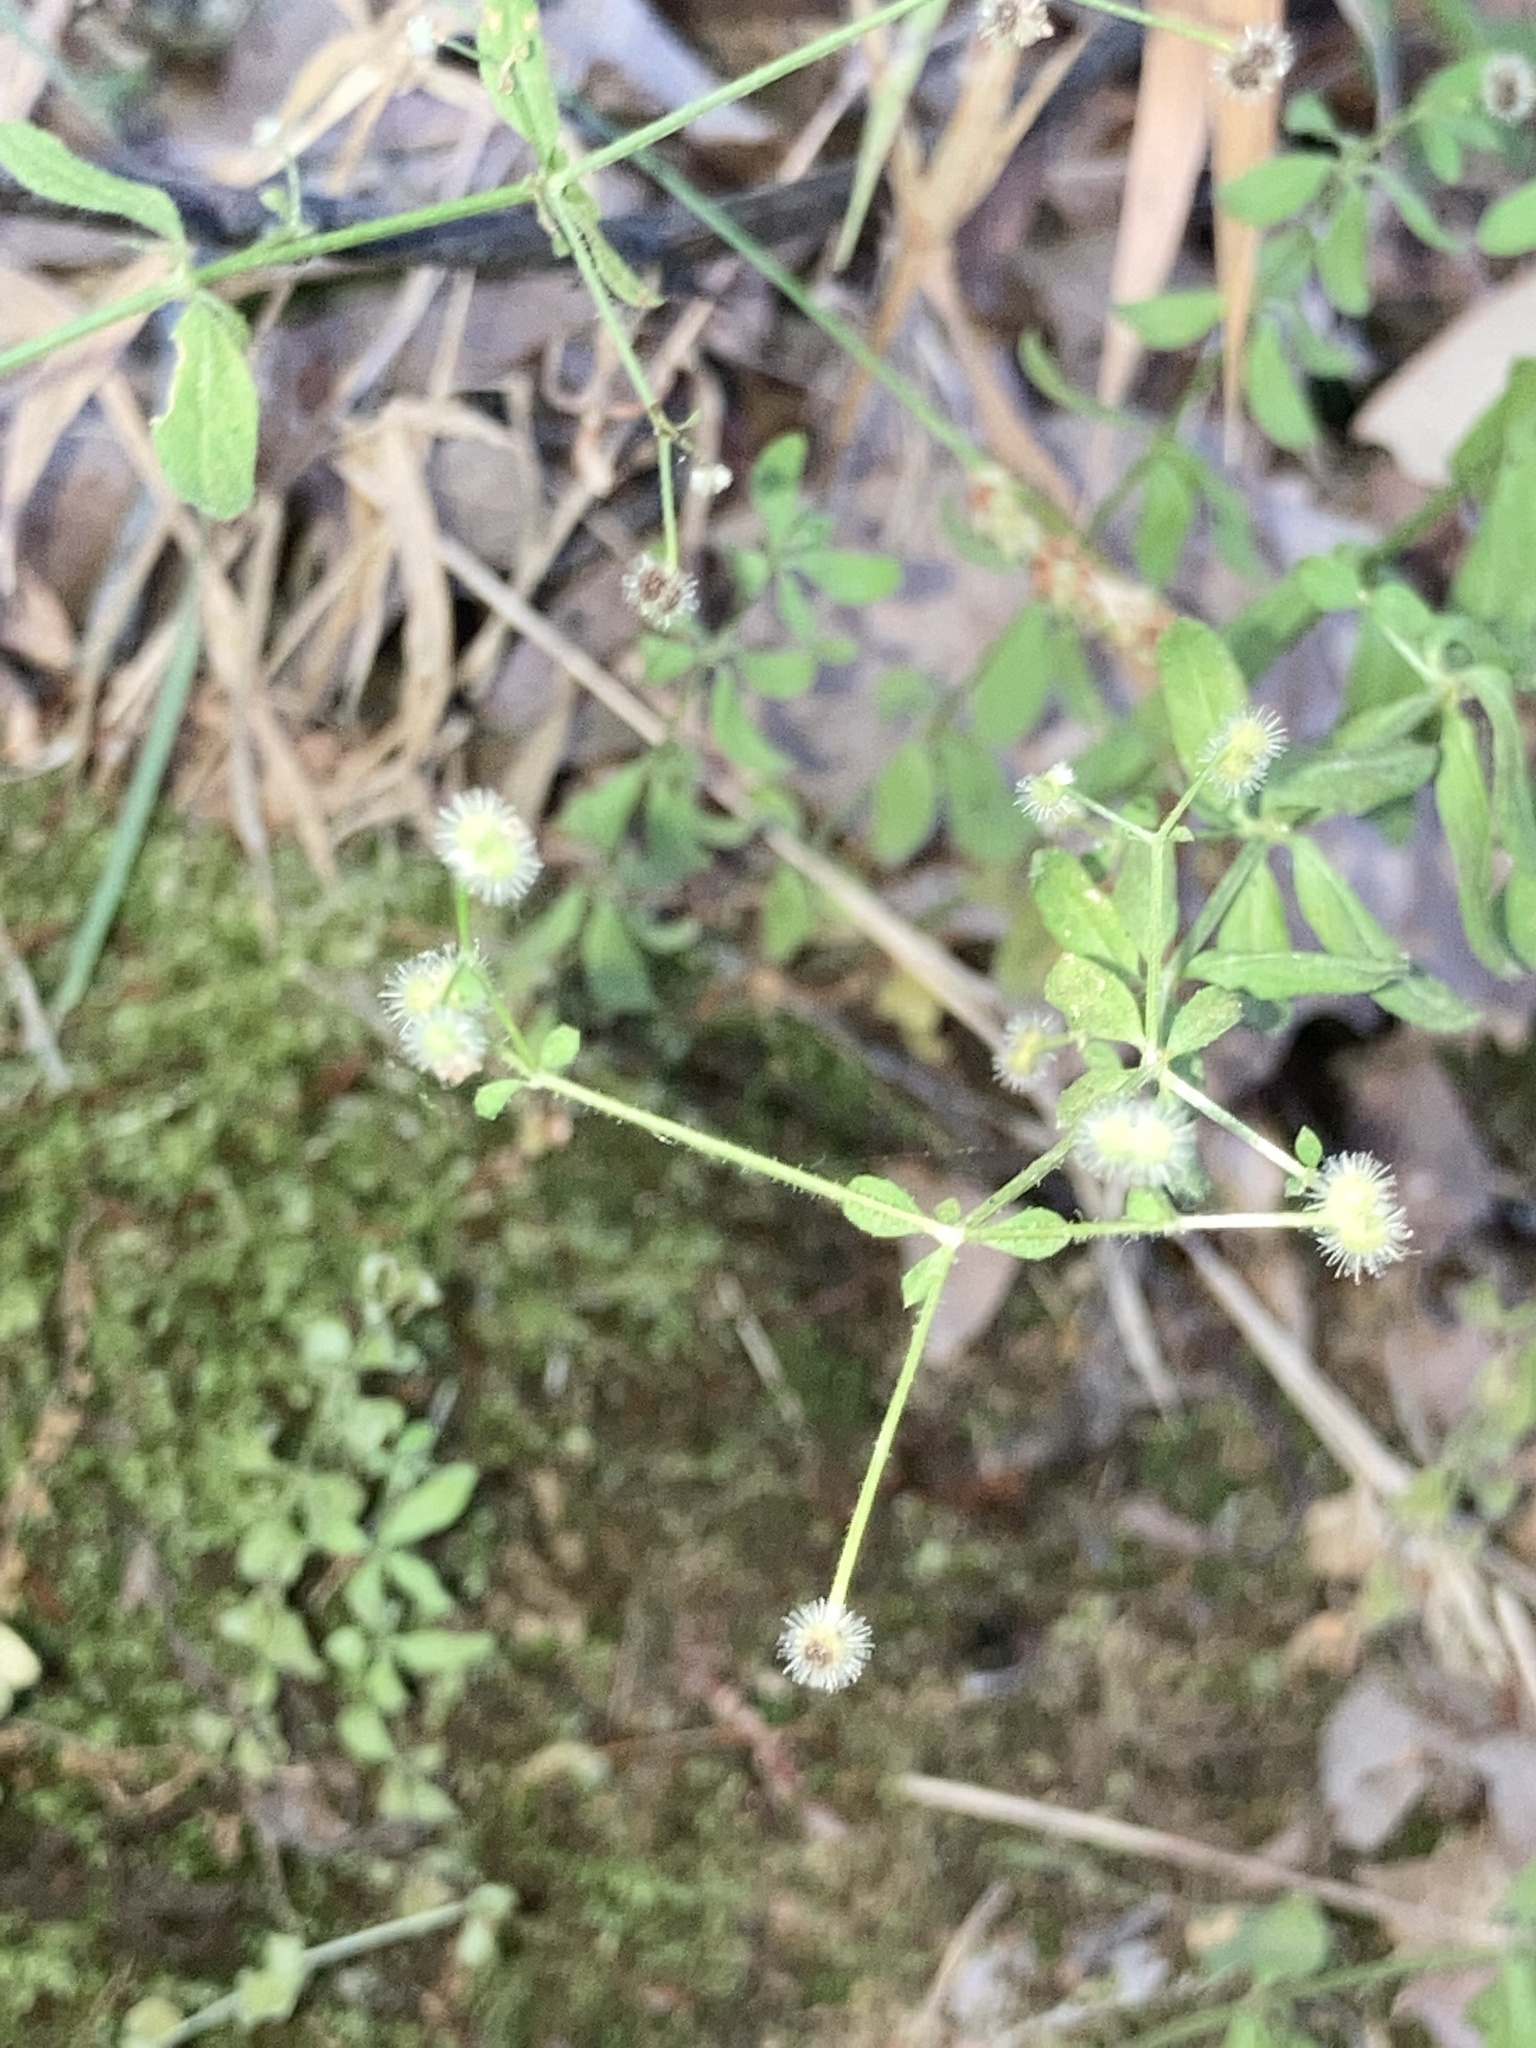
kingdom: Plantae
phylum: Tracheophyta
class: Magnoliopsida
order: Gentianales
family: Rubiaceae
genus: Galium
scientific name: Galium pilosum
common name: Hairy bedstraw
